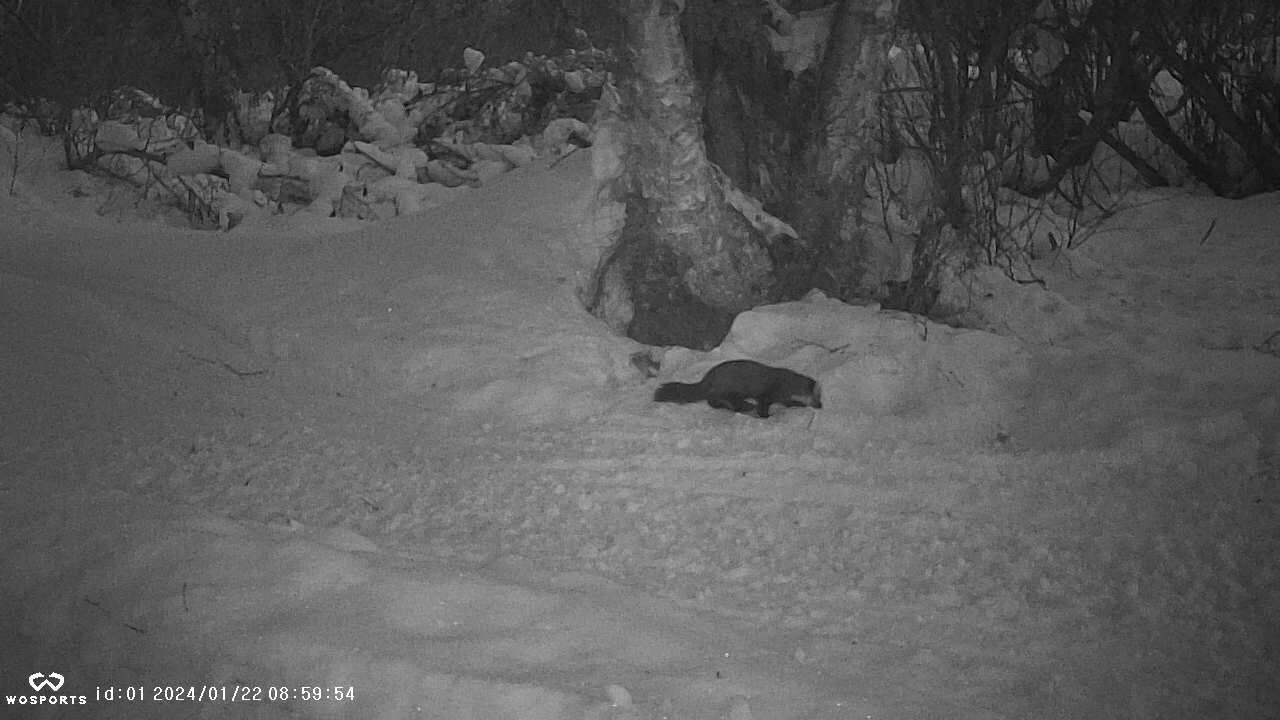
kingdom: Animalia
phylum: Chordata
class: Mammalia
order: Carnivora
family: Mustelidae
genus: Martes
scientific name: Martes americana
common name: American marten
